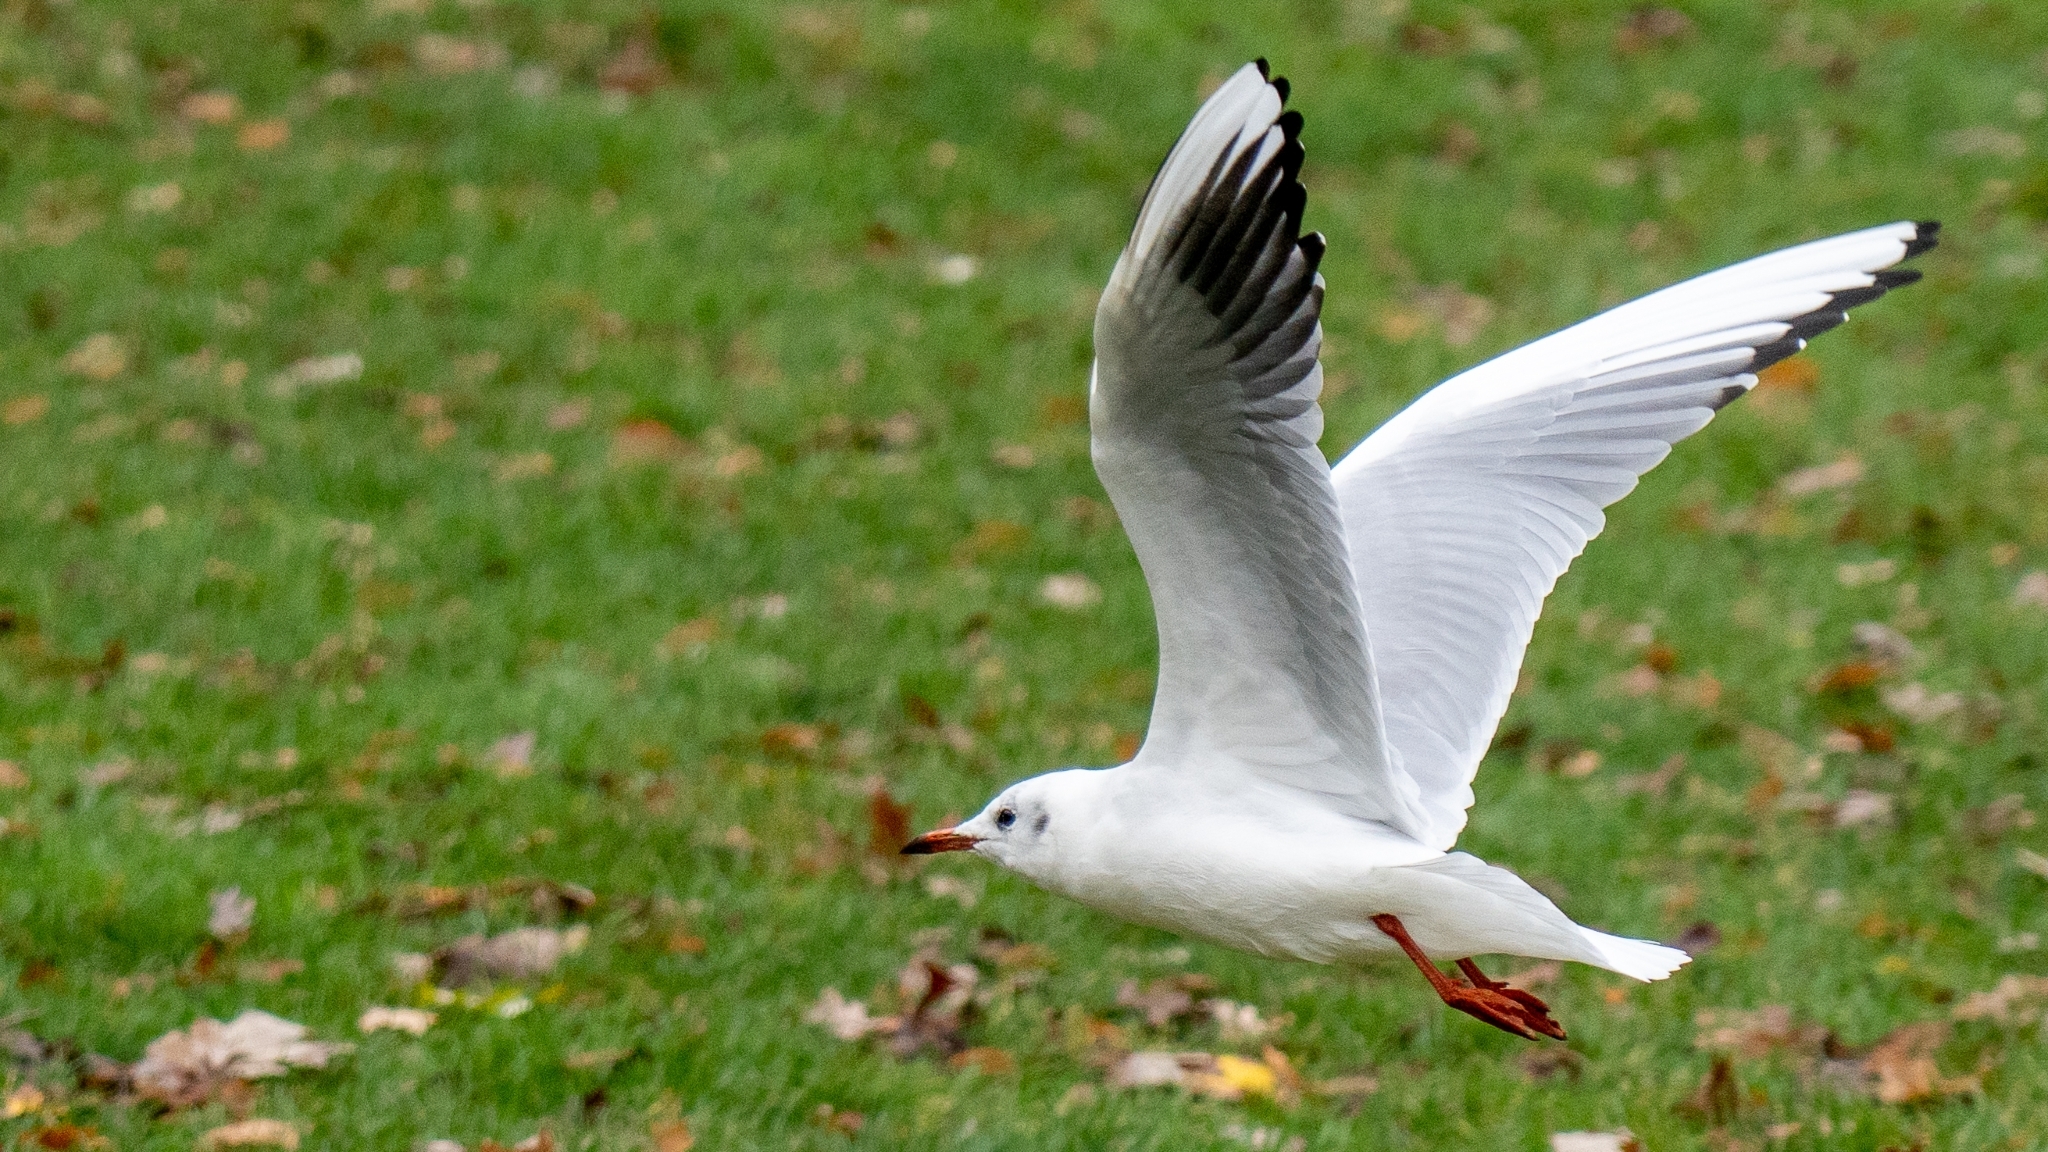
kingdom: Animalia
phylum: Chordata
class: Aves
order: Charadriiformes
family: Laridae
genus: Chroicocephalus
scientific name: Chroicocephalus ridibundus
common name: Black-headed gull
